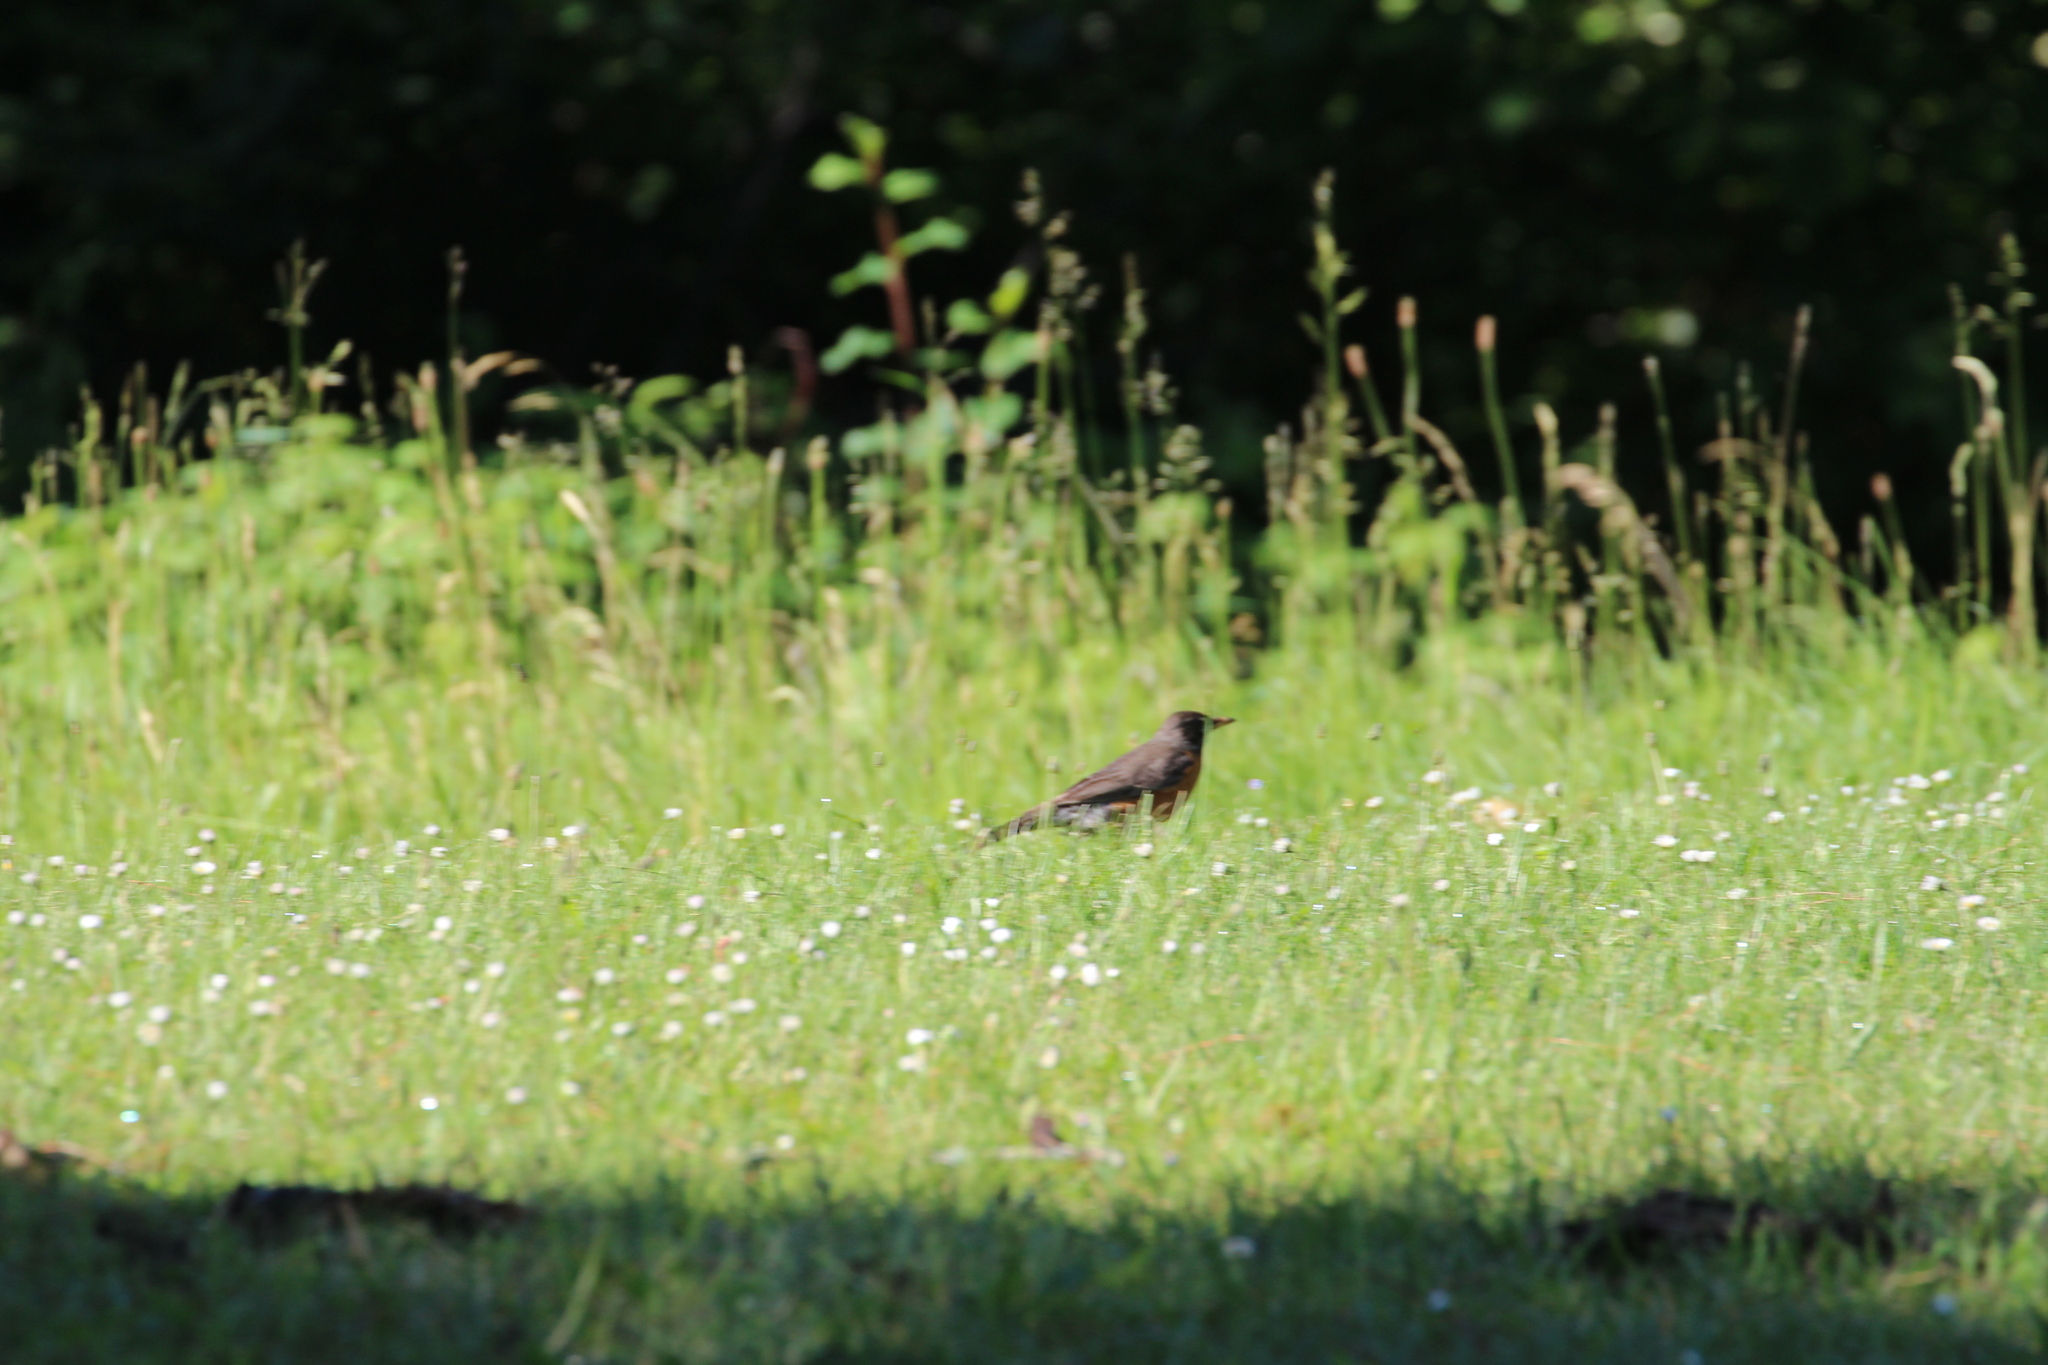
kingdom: Animalia
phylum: Chordata
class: Aves
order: Passeriformes
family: Turdidae
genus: Turdus
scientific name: Turdus migratorius
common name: American robin
